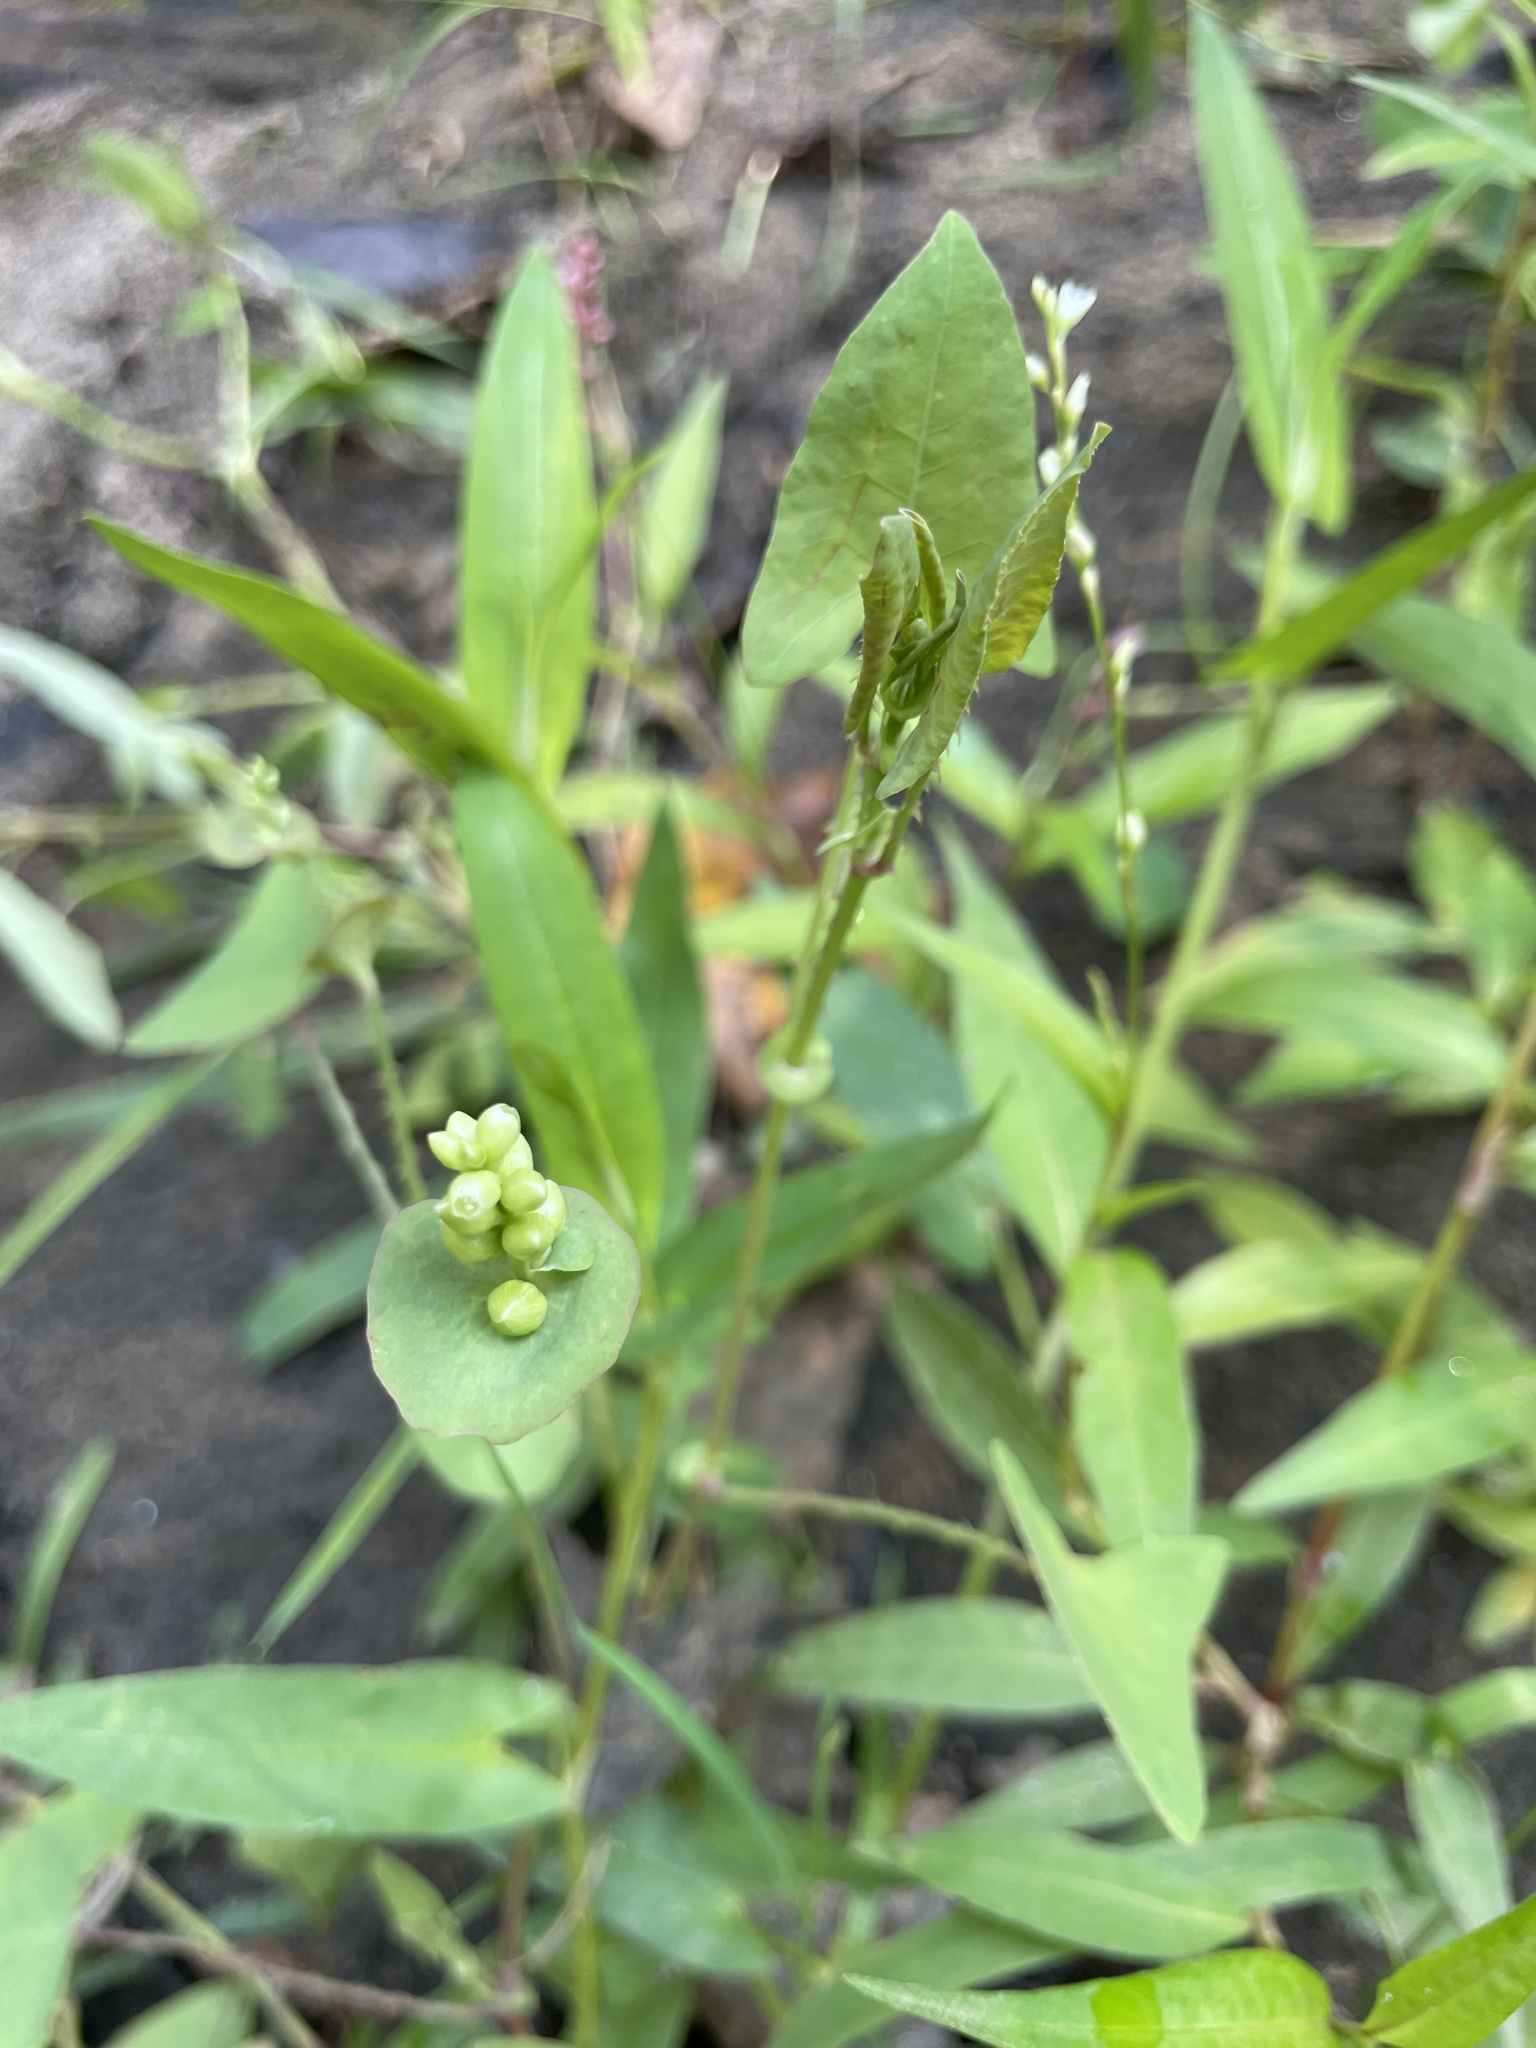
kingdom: Plantae
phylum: Tracheophyta
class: Magnoliopsida
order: Caryophyllales
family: Polygonaceae
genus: Persicaria
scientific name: Persicaria perfoliata
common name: Asiatic tearthumb
